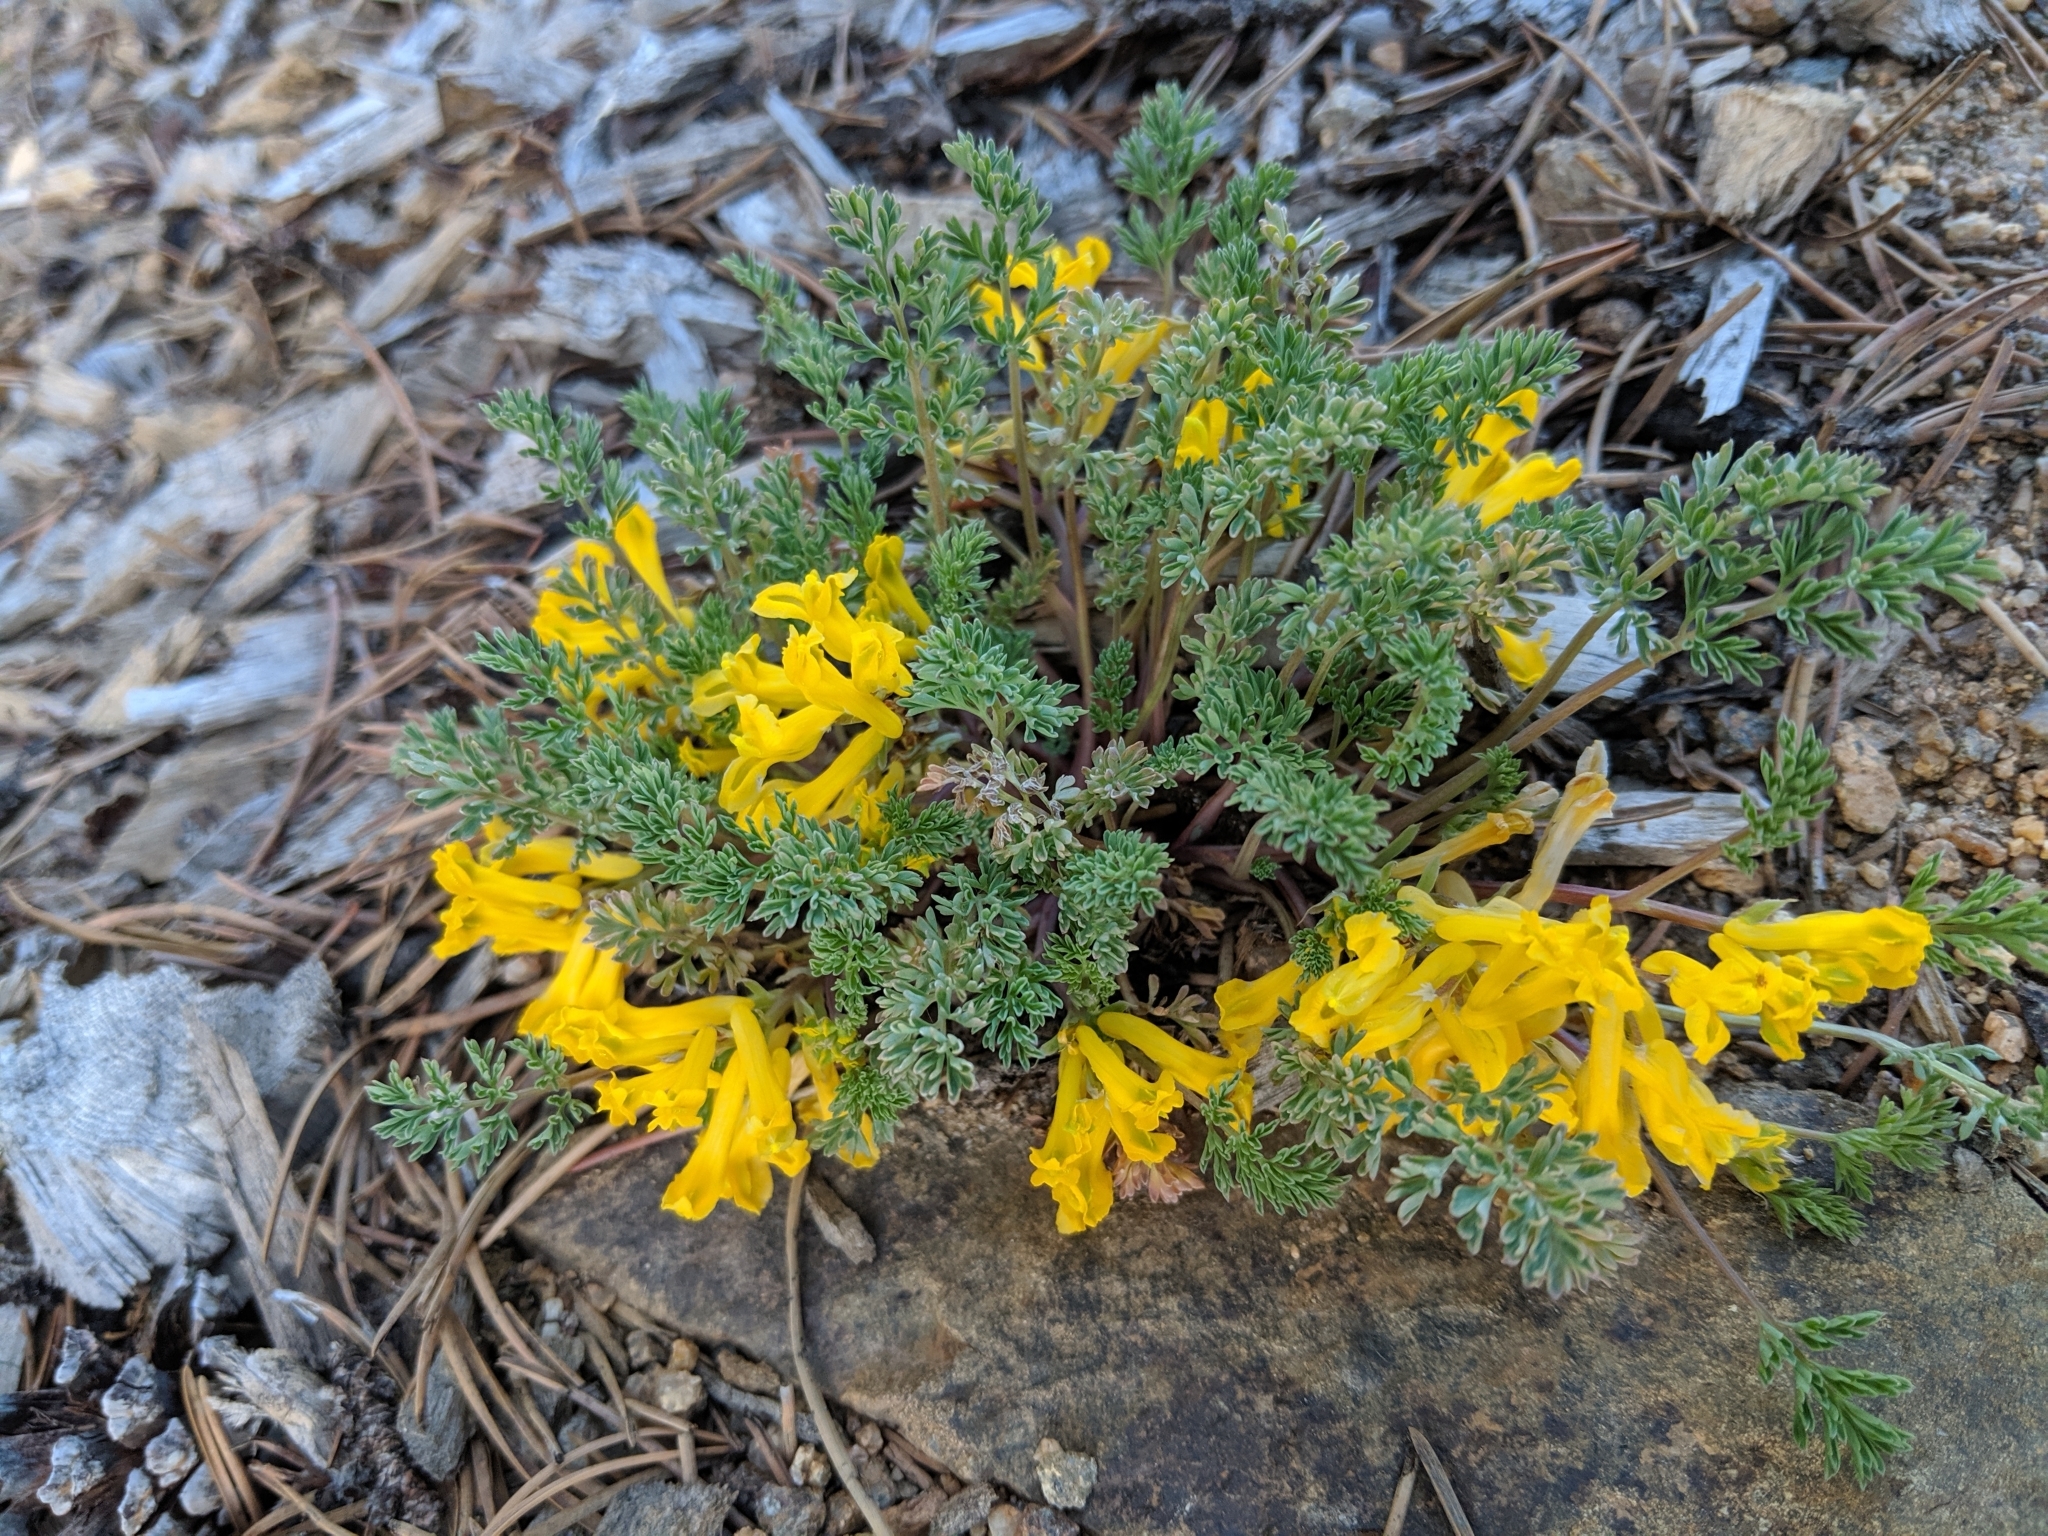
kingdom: Plantae
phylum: Tracheophyta
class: Magnoliopsida
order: Ranunculales
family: Papaveraceae
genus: Corydalis
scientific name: Corydalis aurea
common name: Golden corydalis
